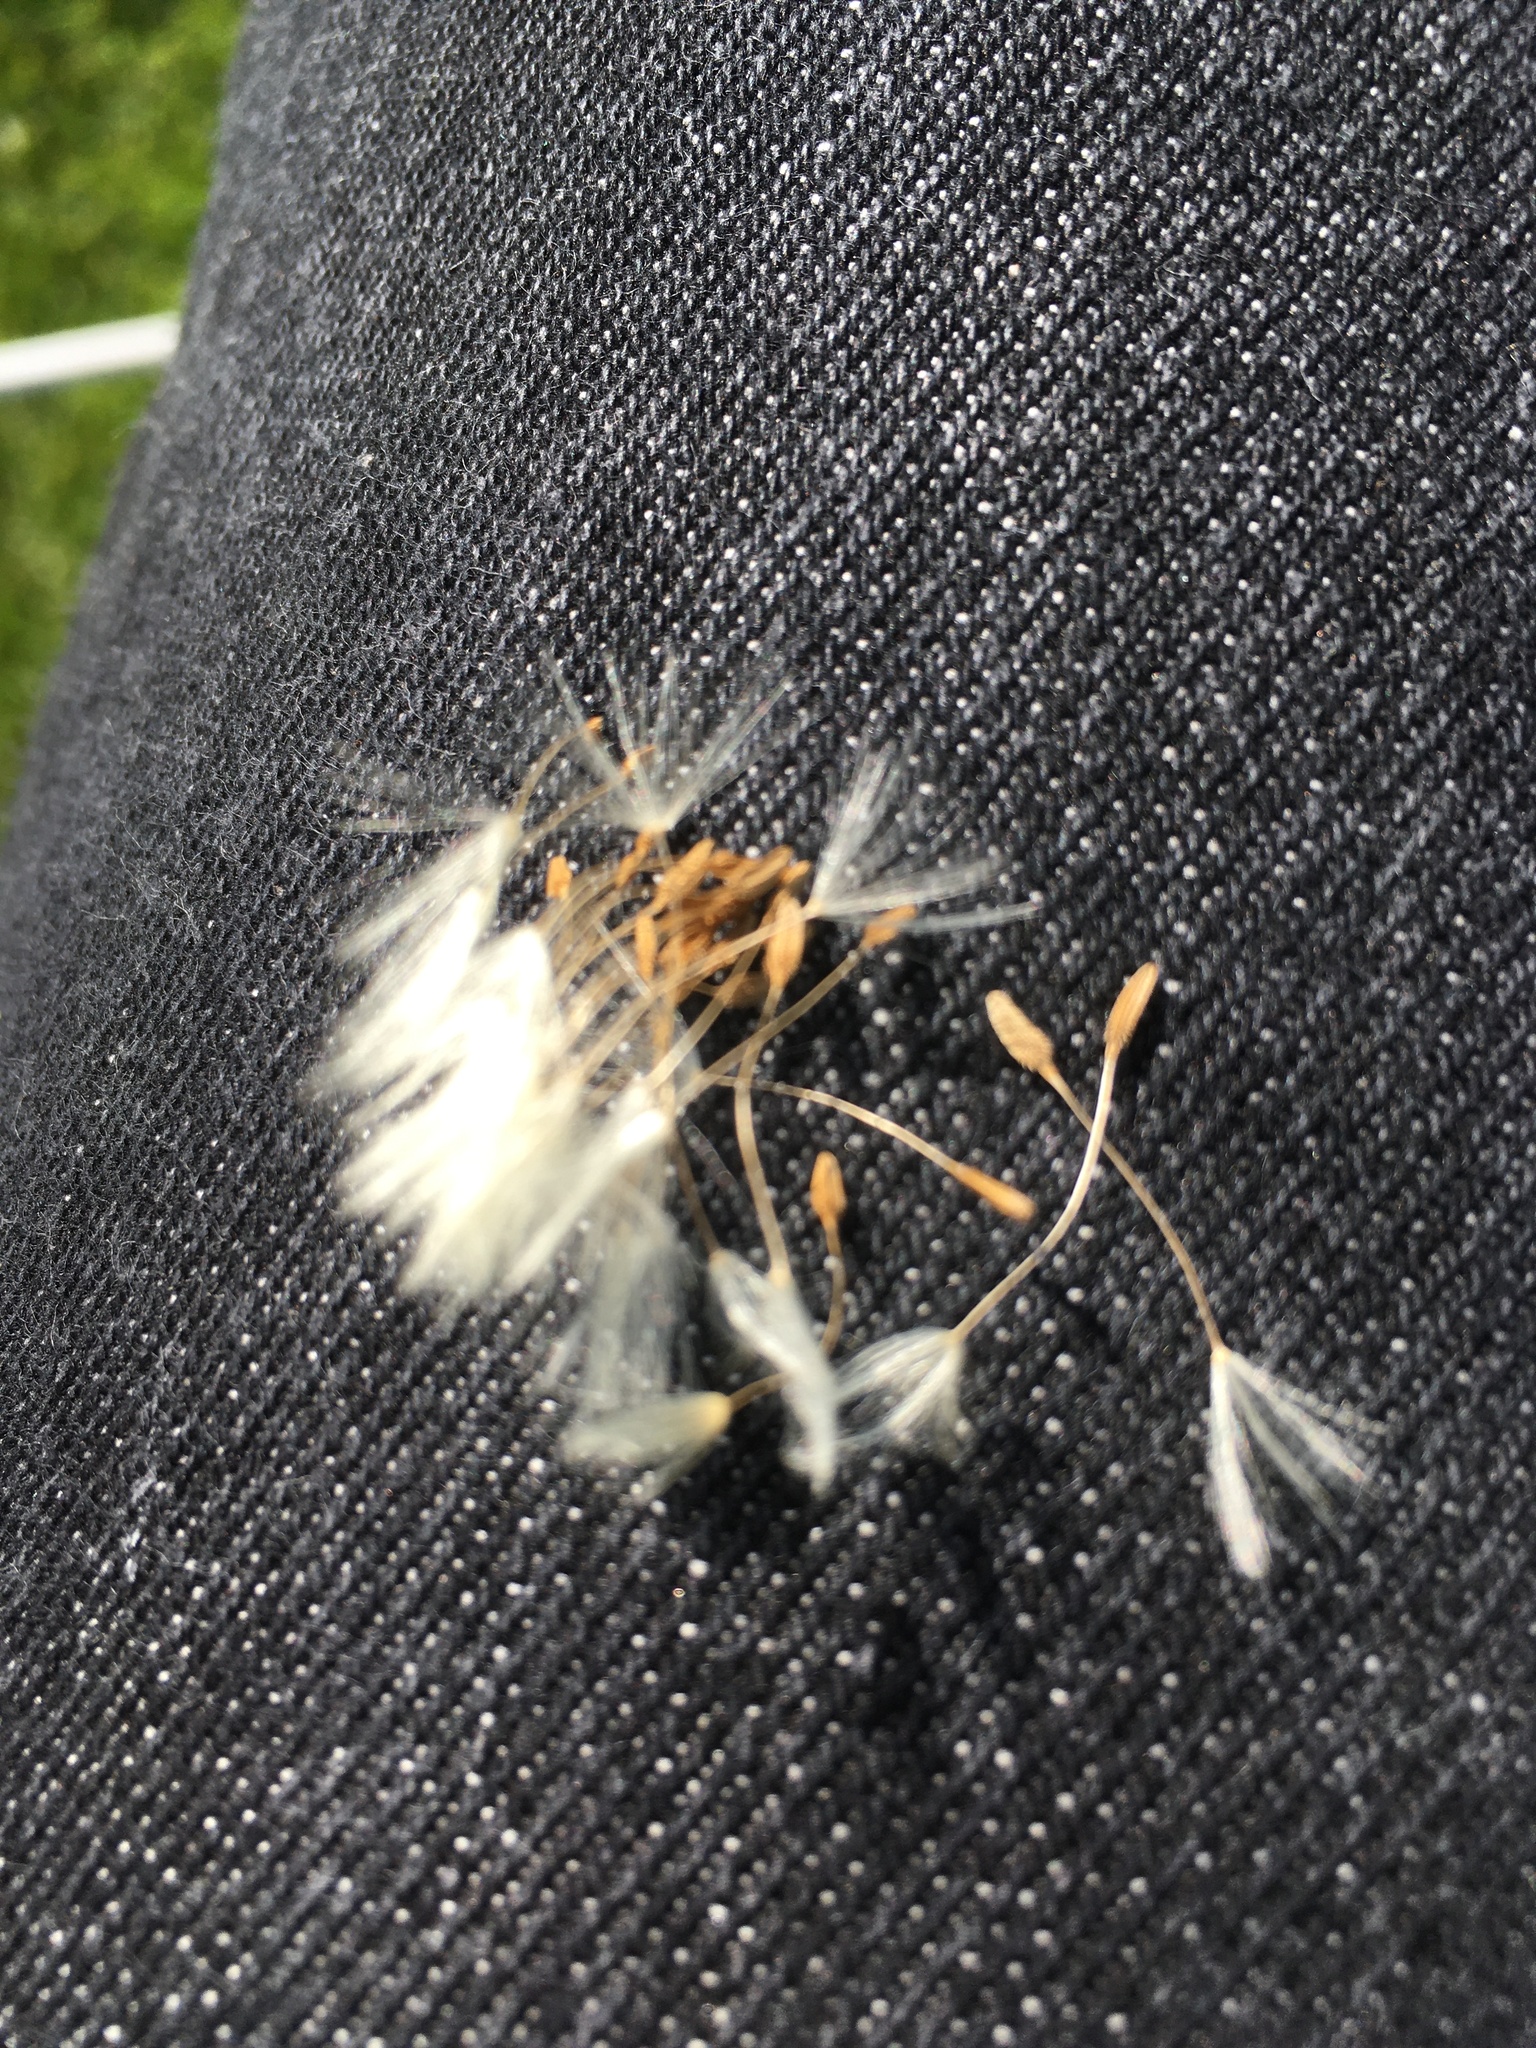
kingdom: Plantae
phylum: Tracheophyta
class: Magnoliopsida
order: Asterales
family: Asteraceae
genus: Taraxacum
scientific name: Taraxacum officinale
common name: Common dandelion
